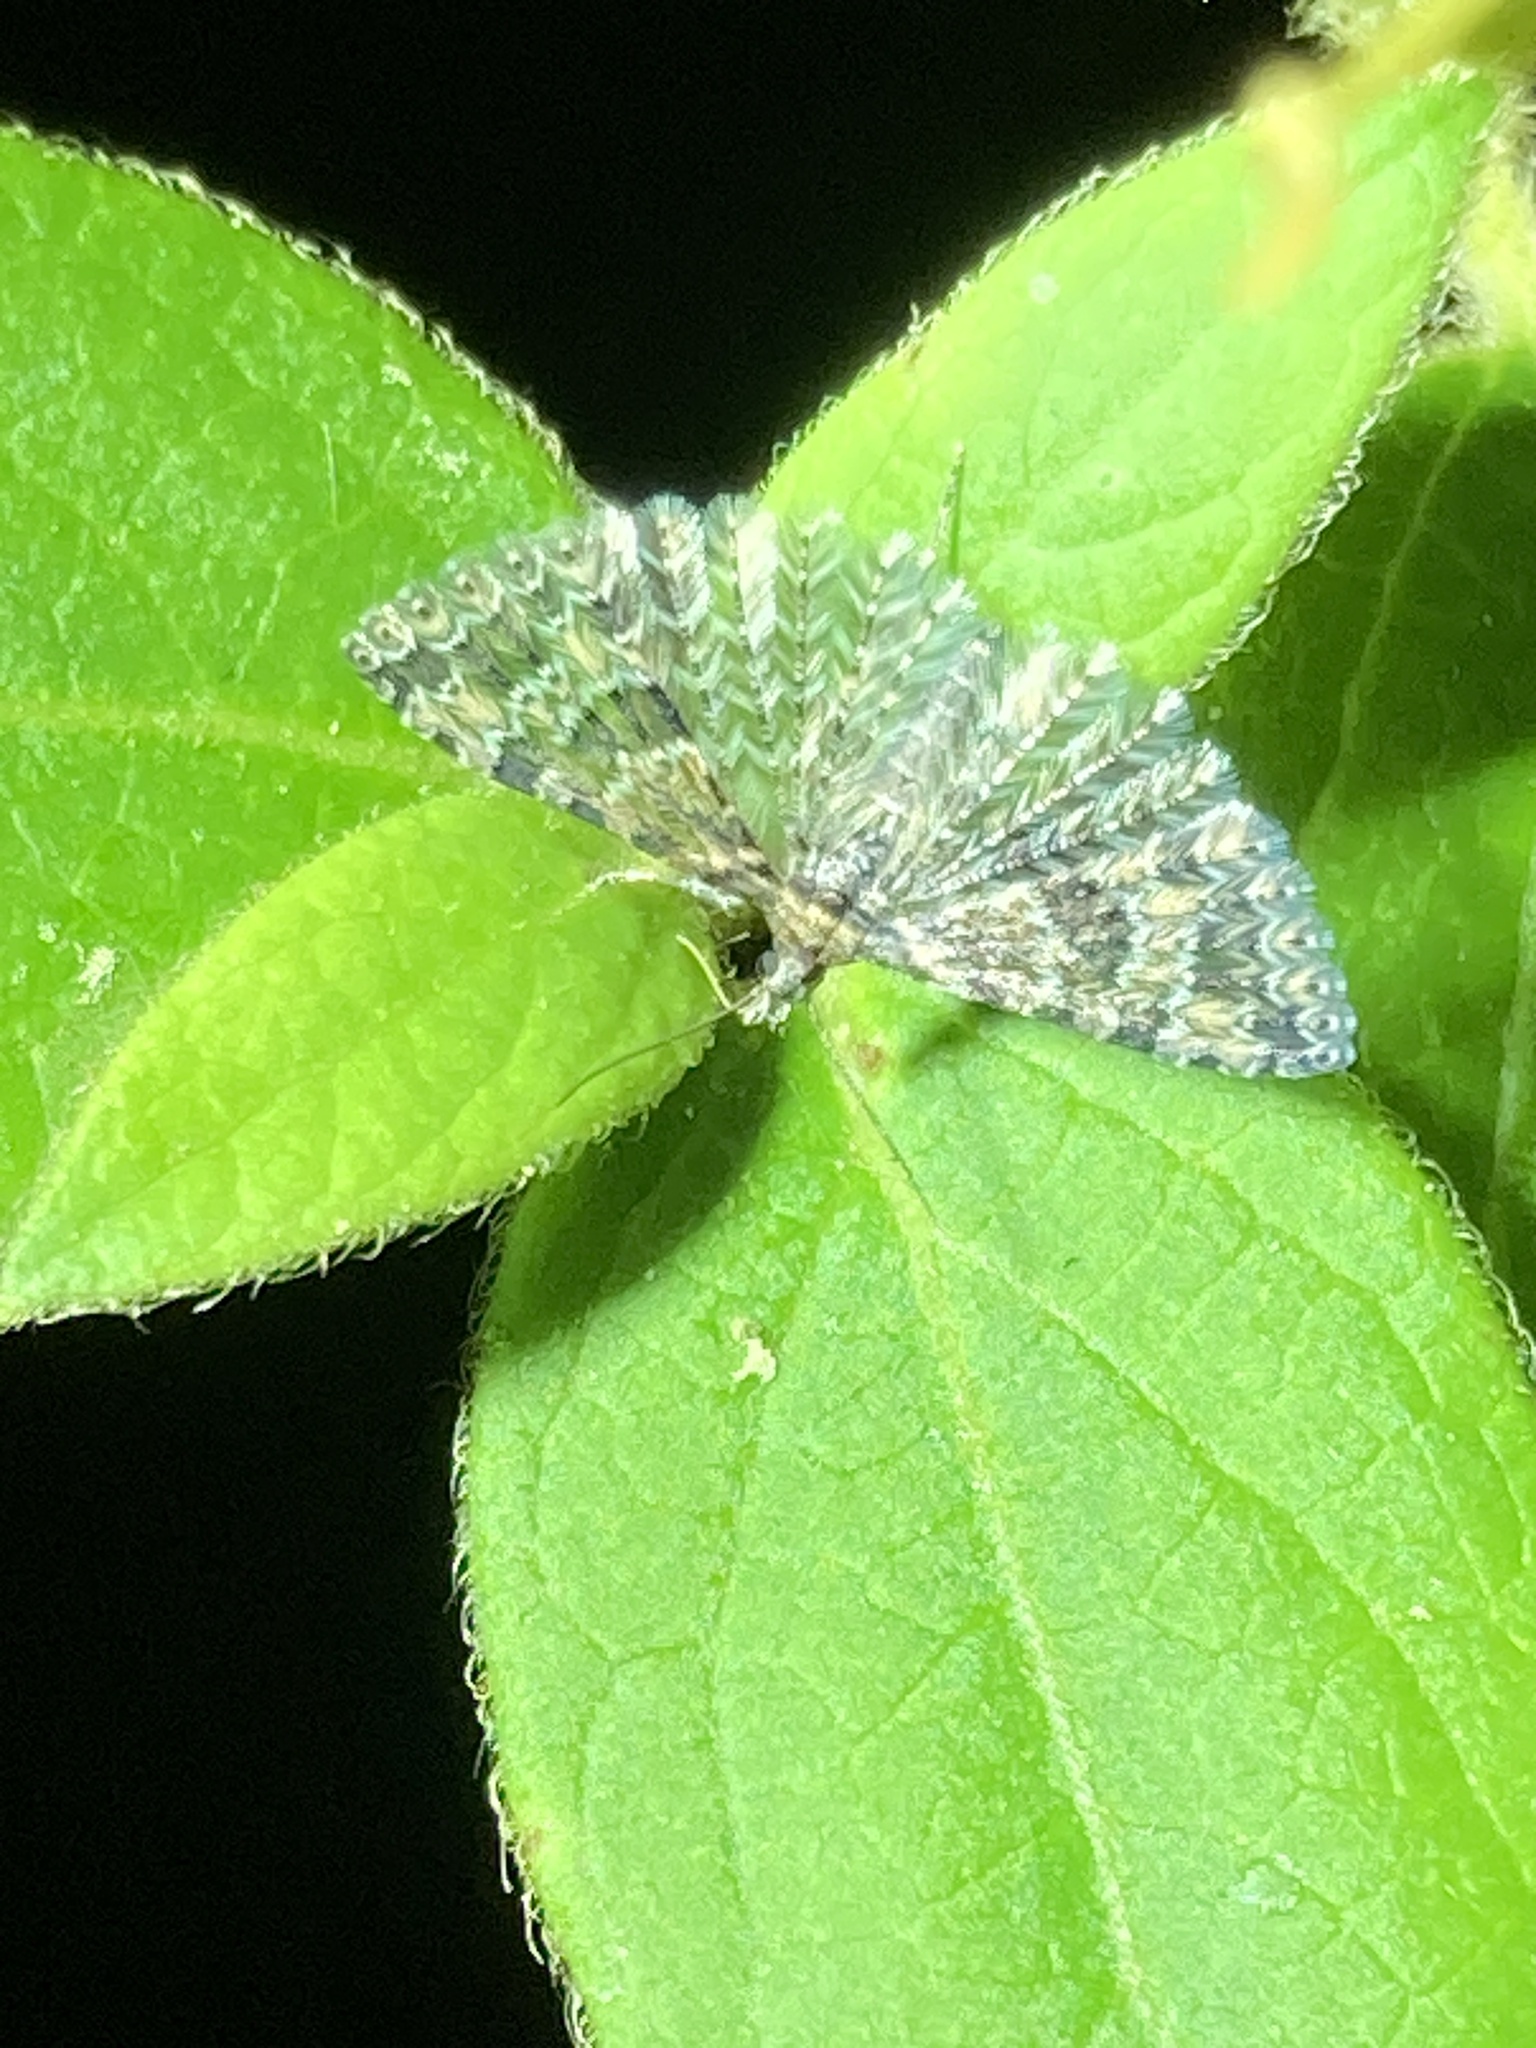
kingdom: Animalia
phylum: Arthropoda
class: Insecta
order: Lepidoptera
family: Alucitidae
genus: Alucita
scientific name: Alucita montana
